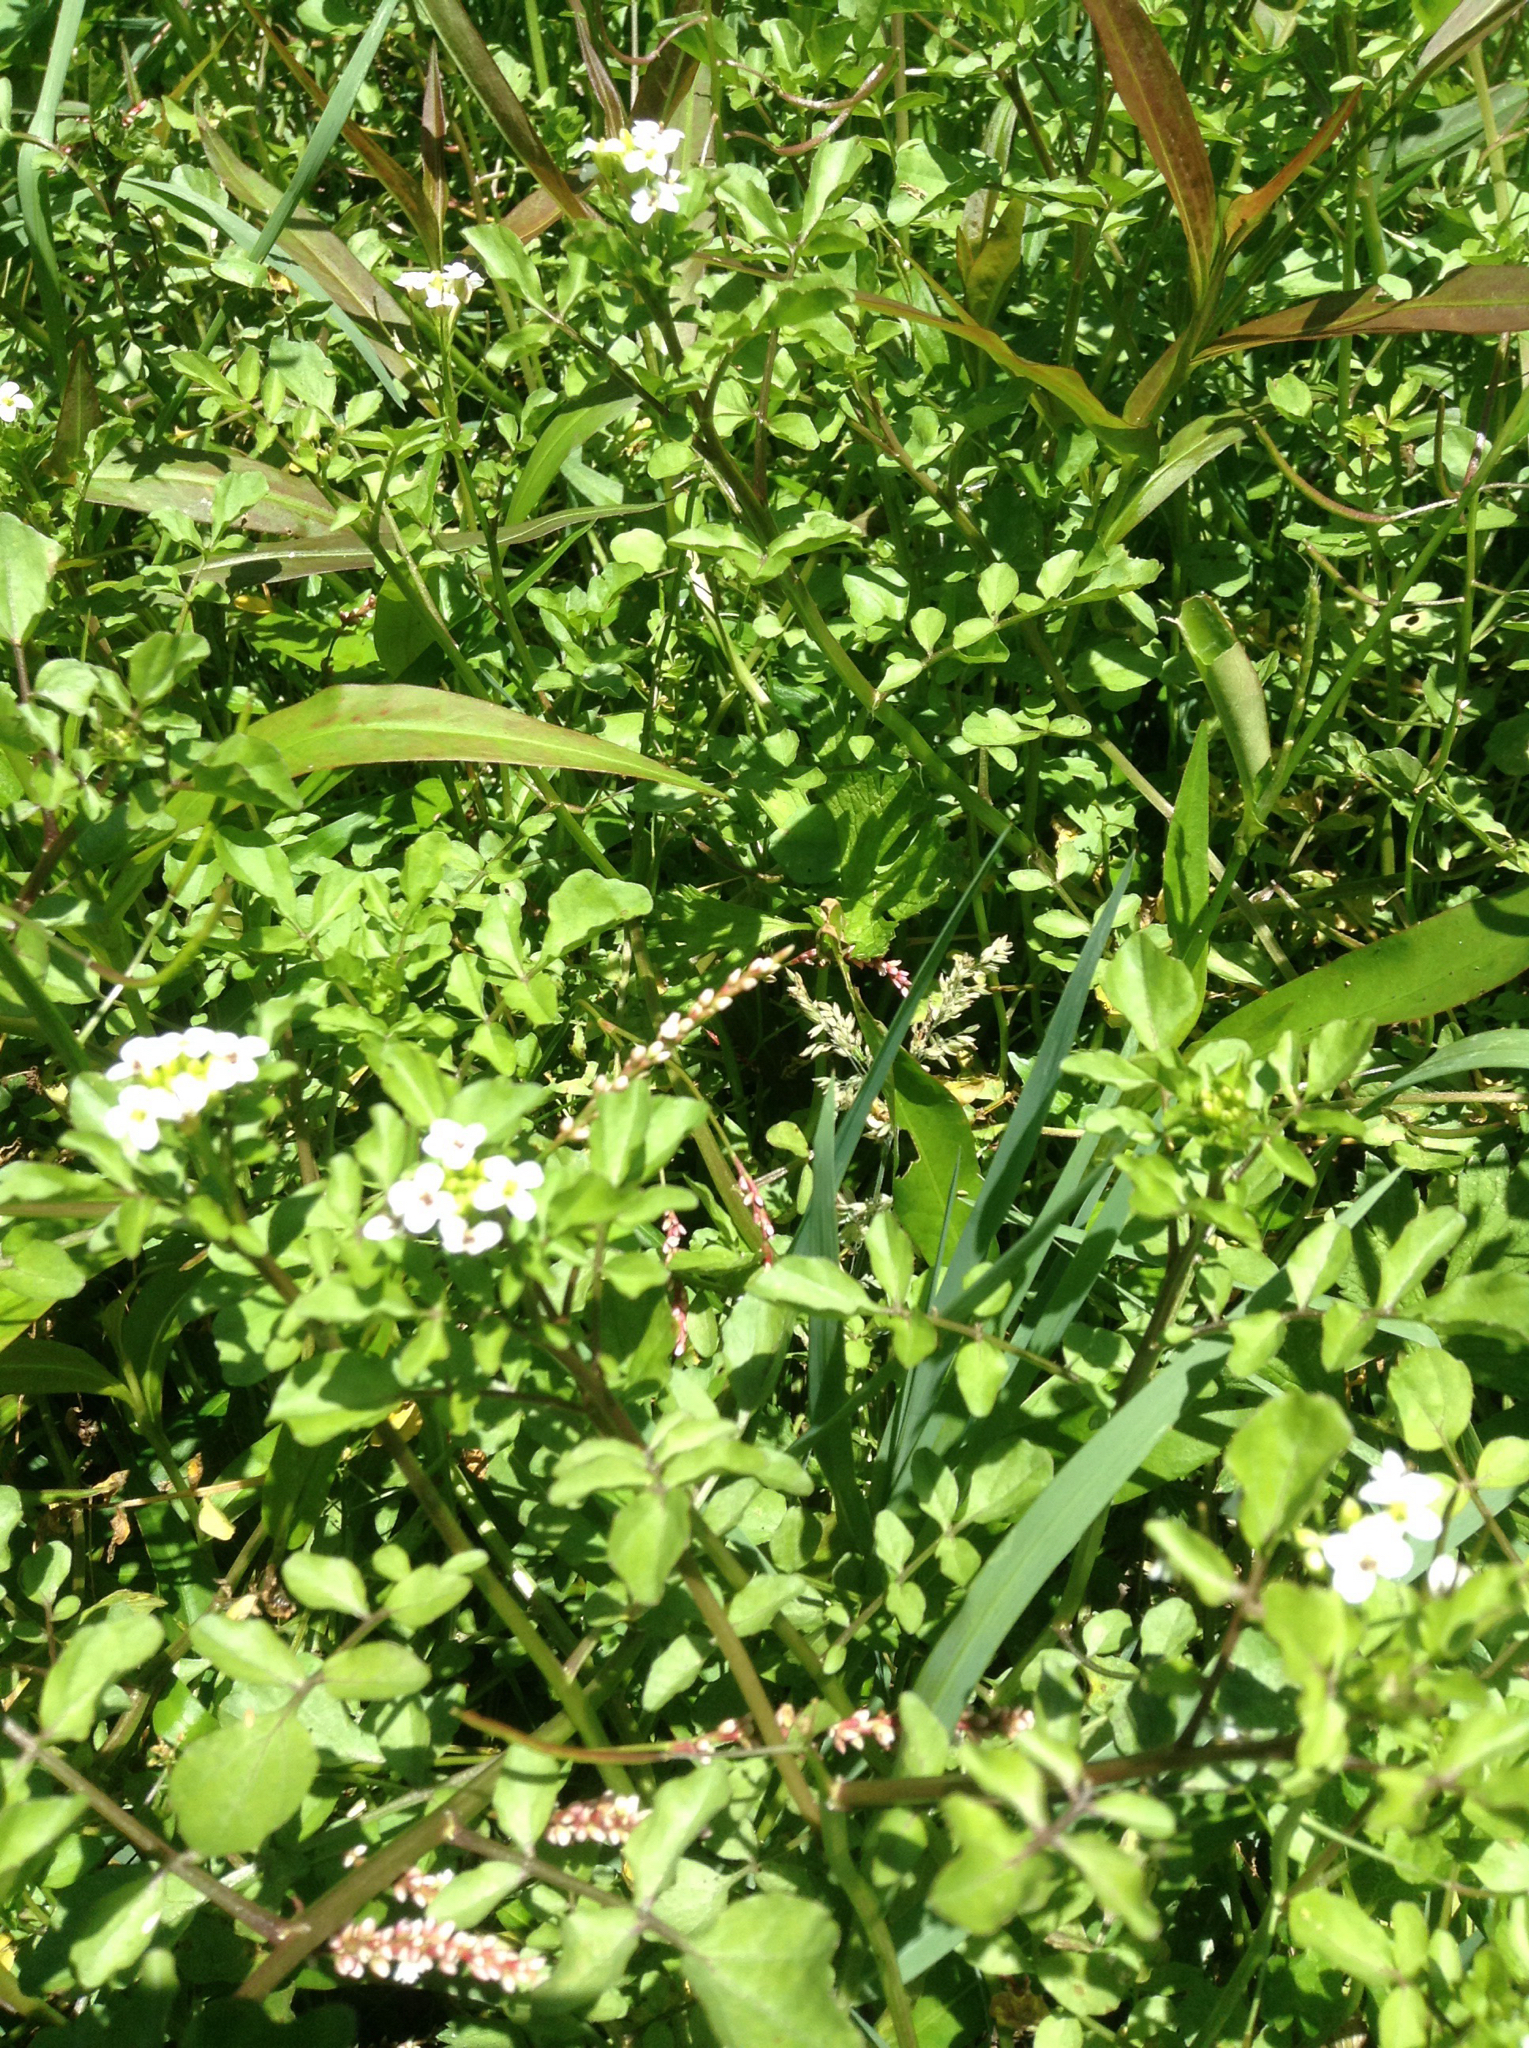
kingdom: Plantae
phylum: Tracheophyta
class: Magnoliopsida
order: Brassicales
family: Brassicaceae
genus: Nasturtium
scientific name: Nasturtium officinale
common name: Watercress
